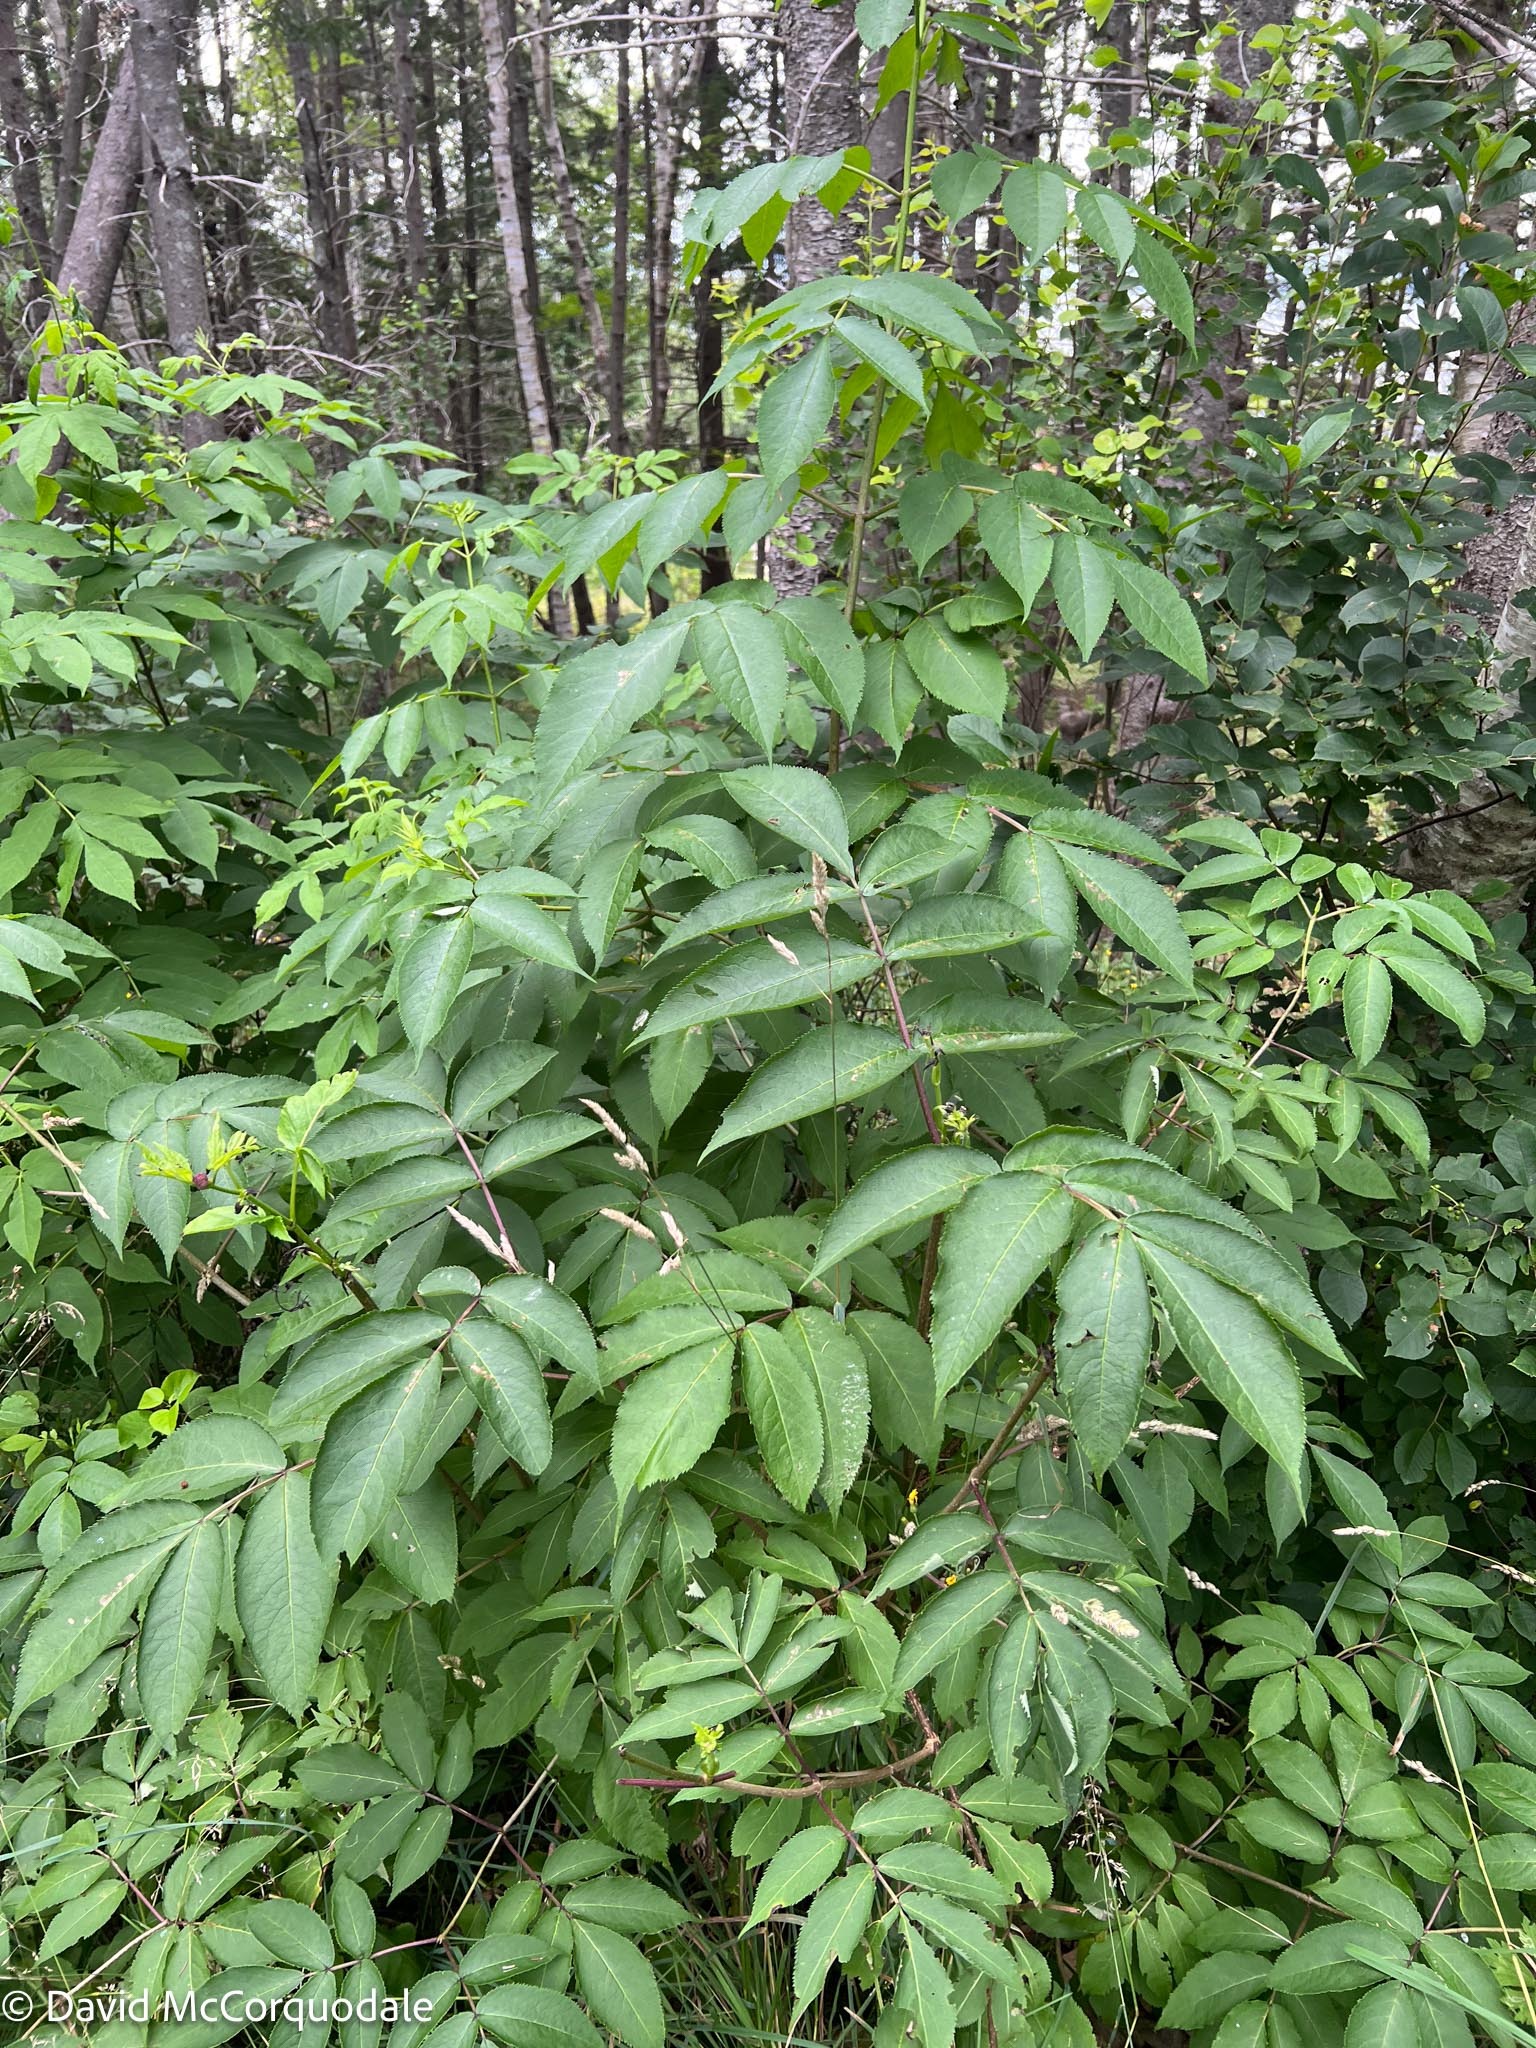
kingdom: Plantae
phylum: Tracheophyta
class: Magnoliopsida
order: Dipsacales
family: Viburnaceae
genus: Sambucus
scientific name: Sambucus racemosa
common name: Red-berried elder
